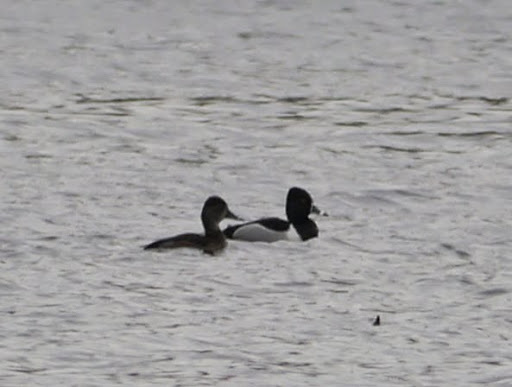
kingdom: Animalia
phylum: Chordata
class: Aves
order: Anseriformes
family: Anatidae
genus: Aythya
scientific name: Aythya collaris
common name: Ring-necked duck
